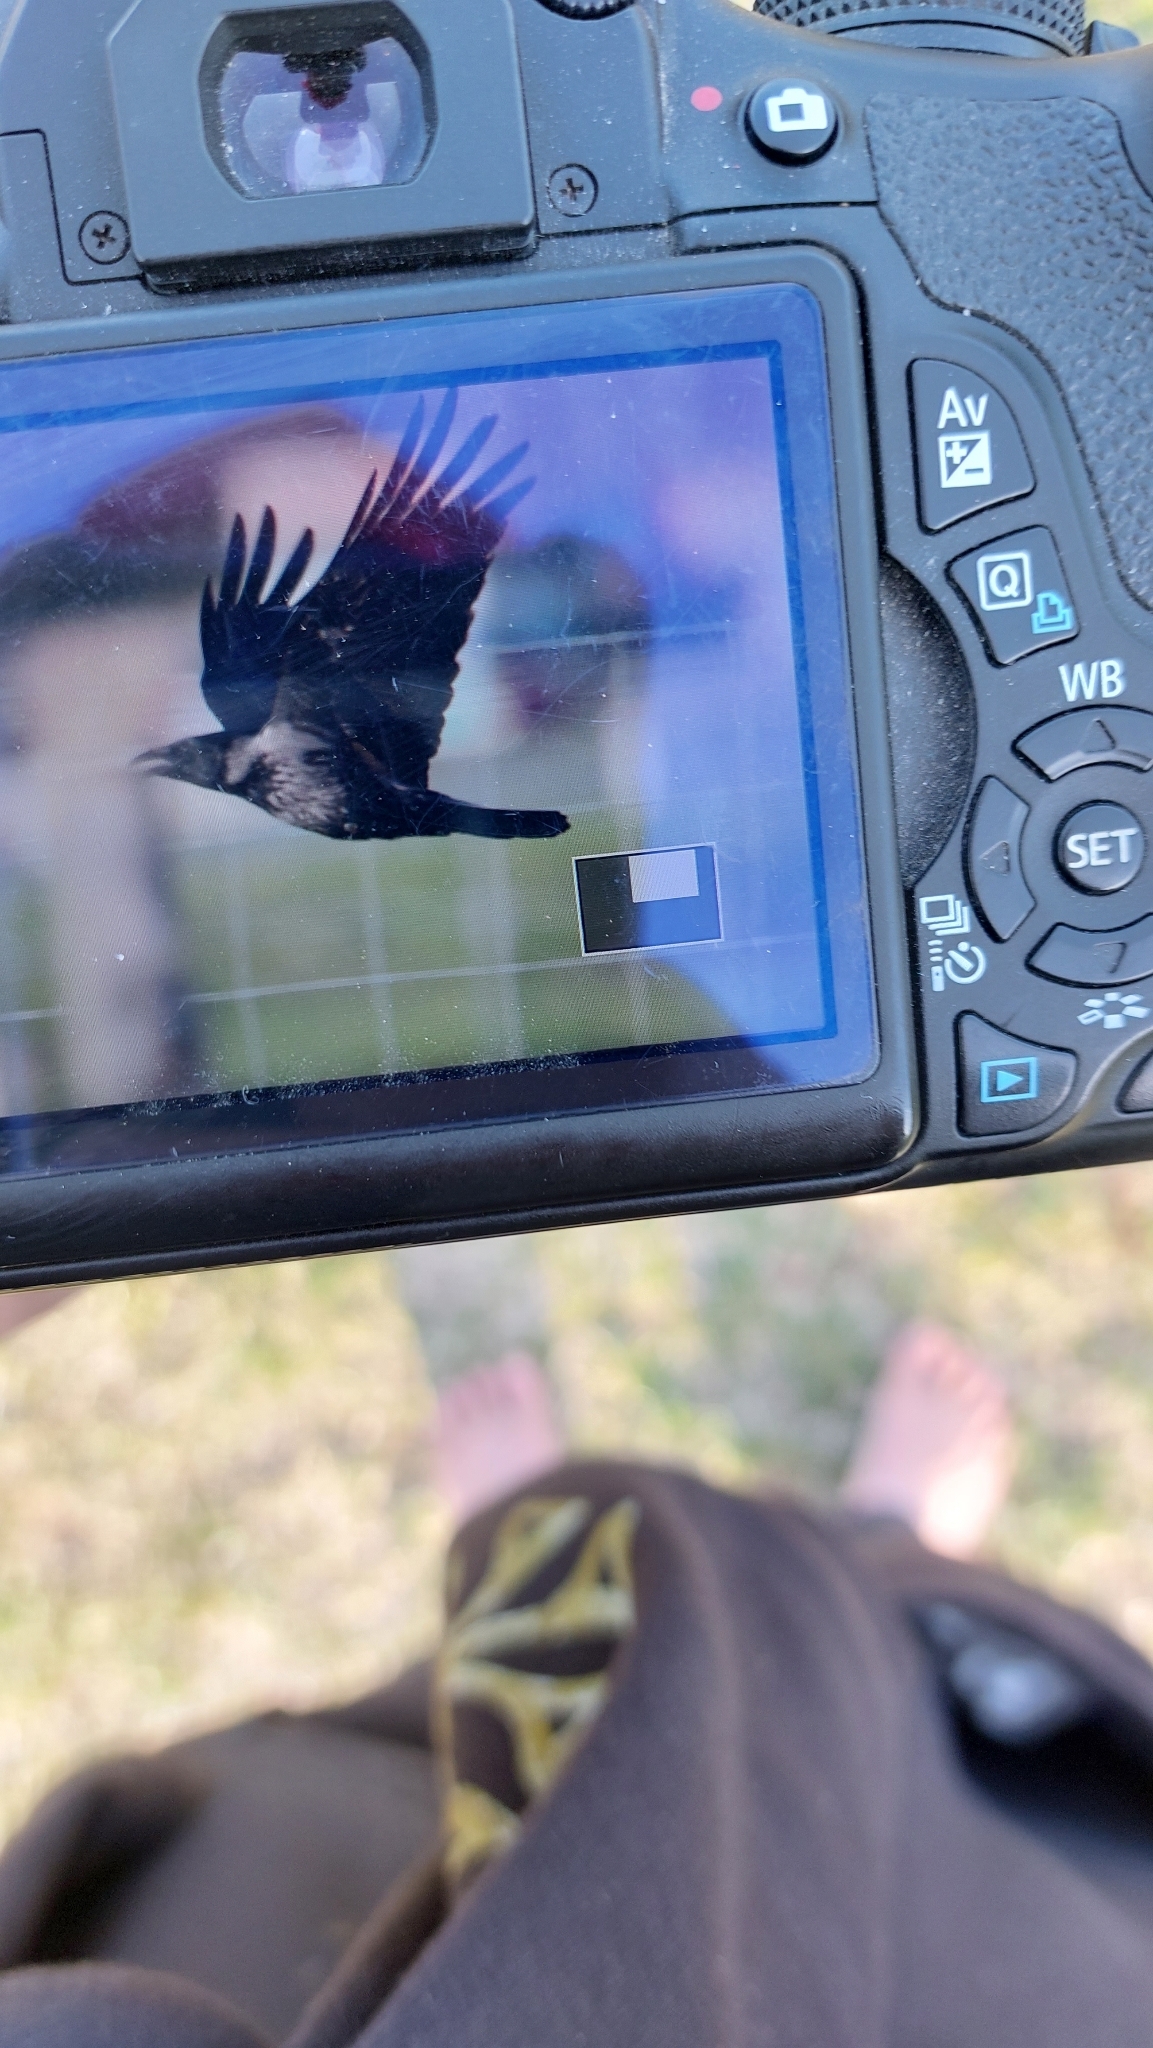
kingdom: Animalia
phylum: Chordata
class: Aves
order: Passeriformes
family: Corvidae
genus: Corvus
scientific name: Corvus
